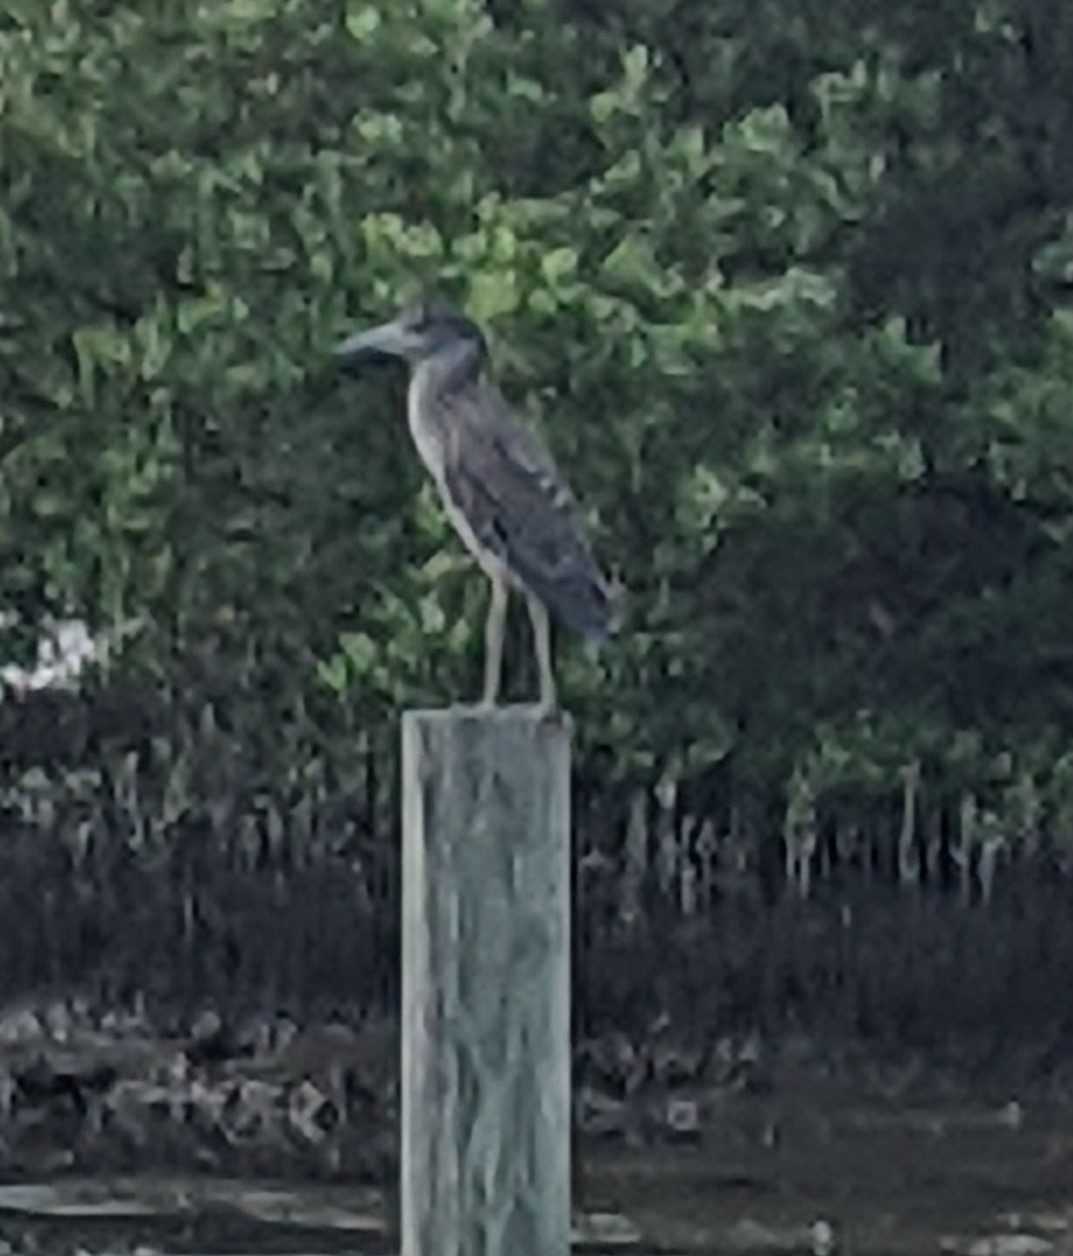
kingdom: Animalia
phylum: Chordata
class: Aves
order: Pelecaniformes
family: Ardeidae
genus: Nycticorax
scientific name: Nycticorax nycticorax
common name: Black-crowned night heron
